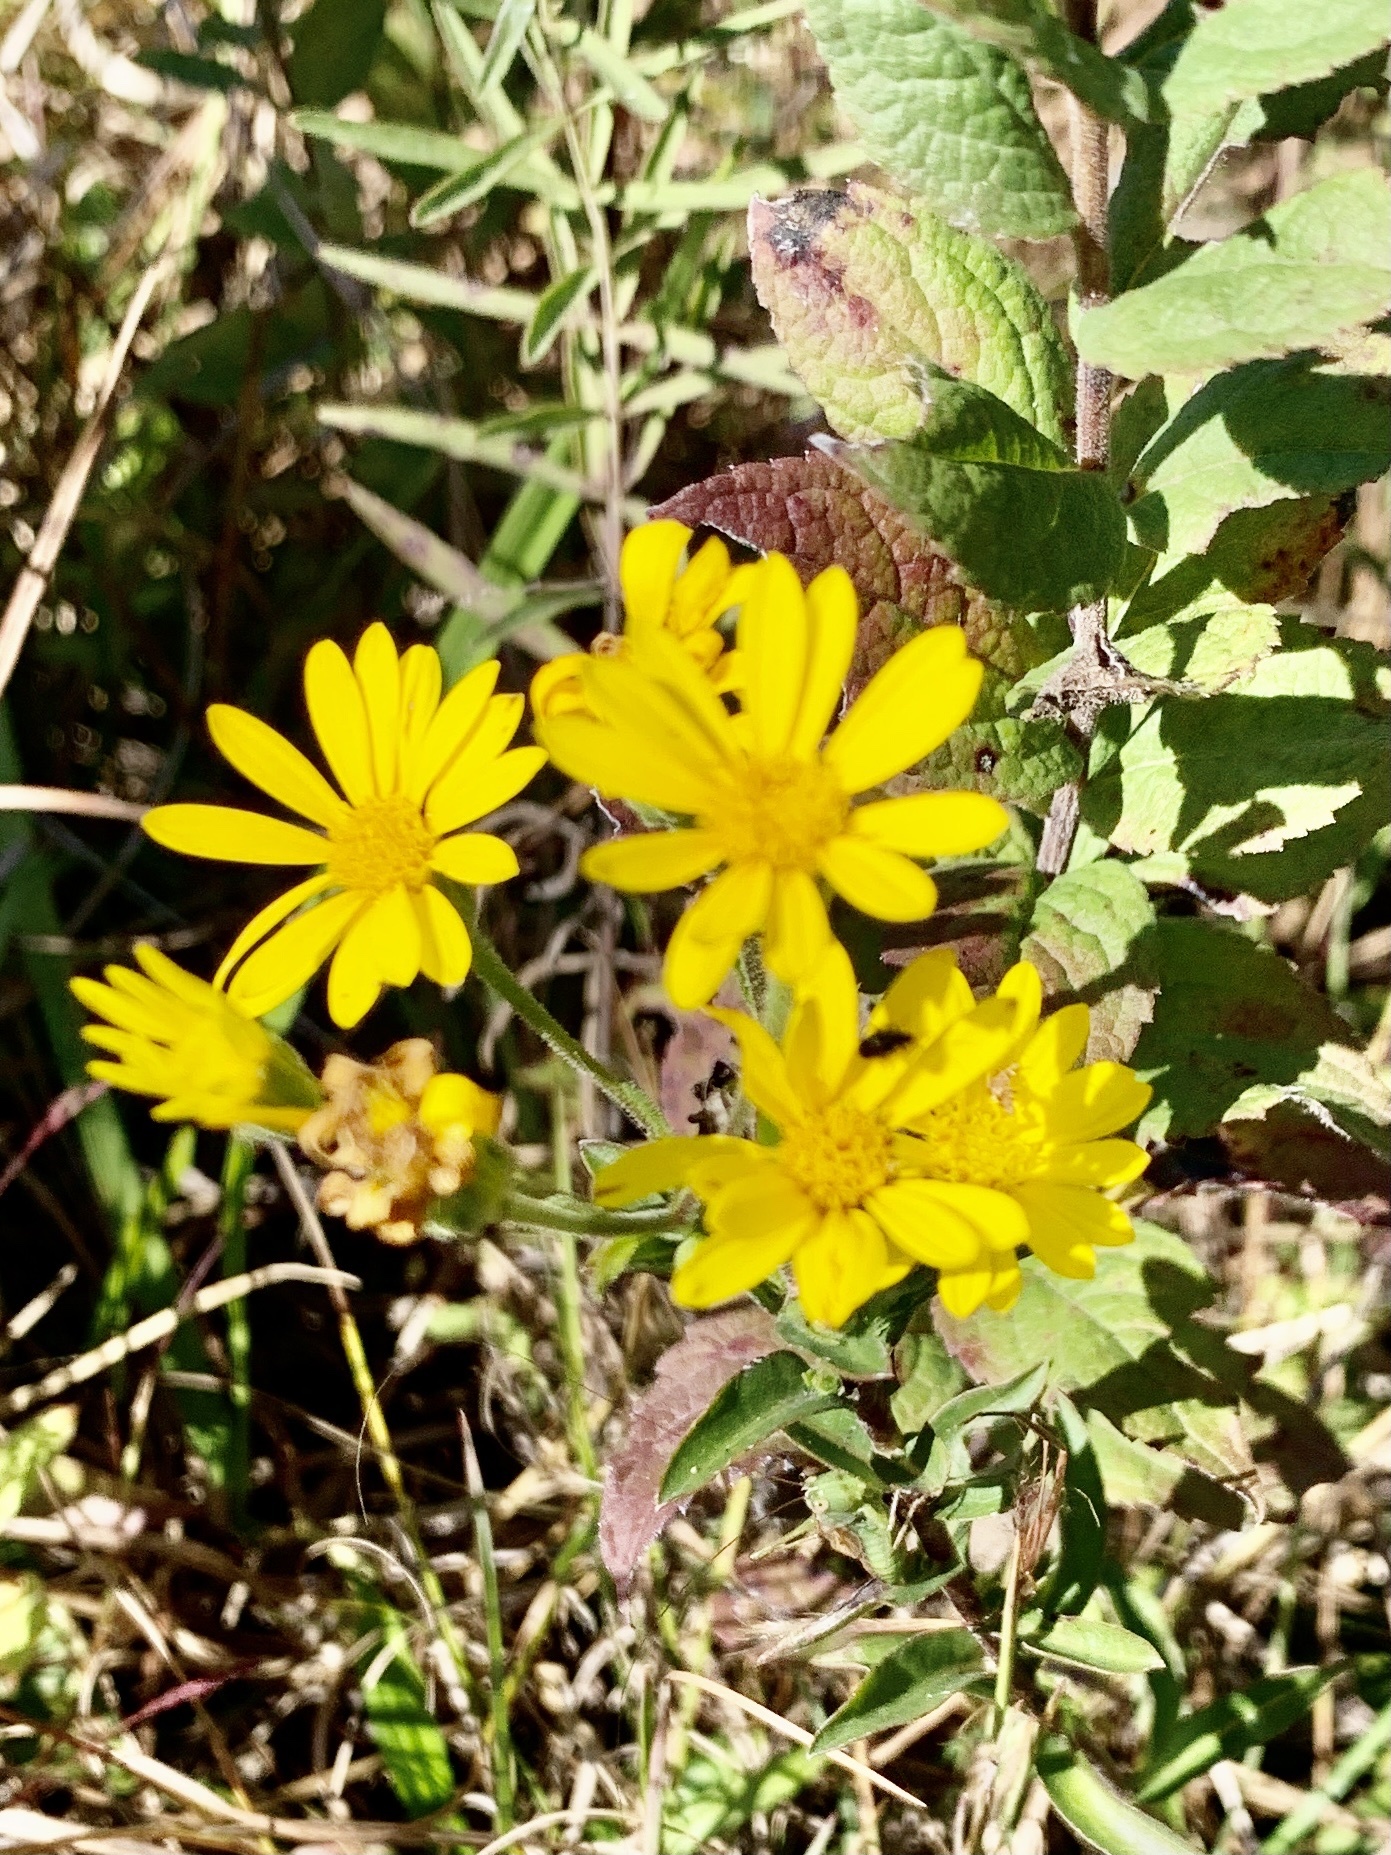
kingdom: Plantae
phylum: Tracheophyta
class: Magnoliopsida
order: Asterales
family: Asteraceae
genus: Chrysopsis
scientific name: Chrysopsis mariana
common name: Maryland golden-aster
